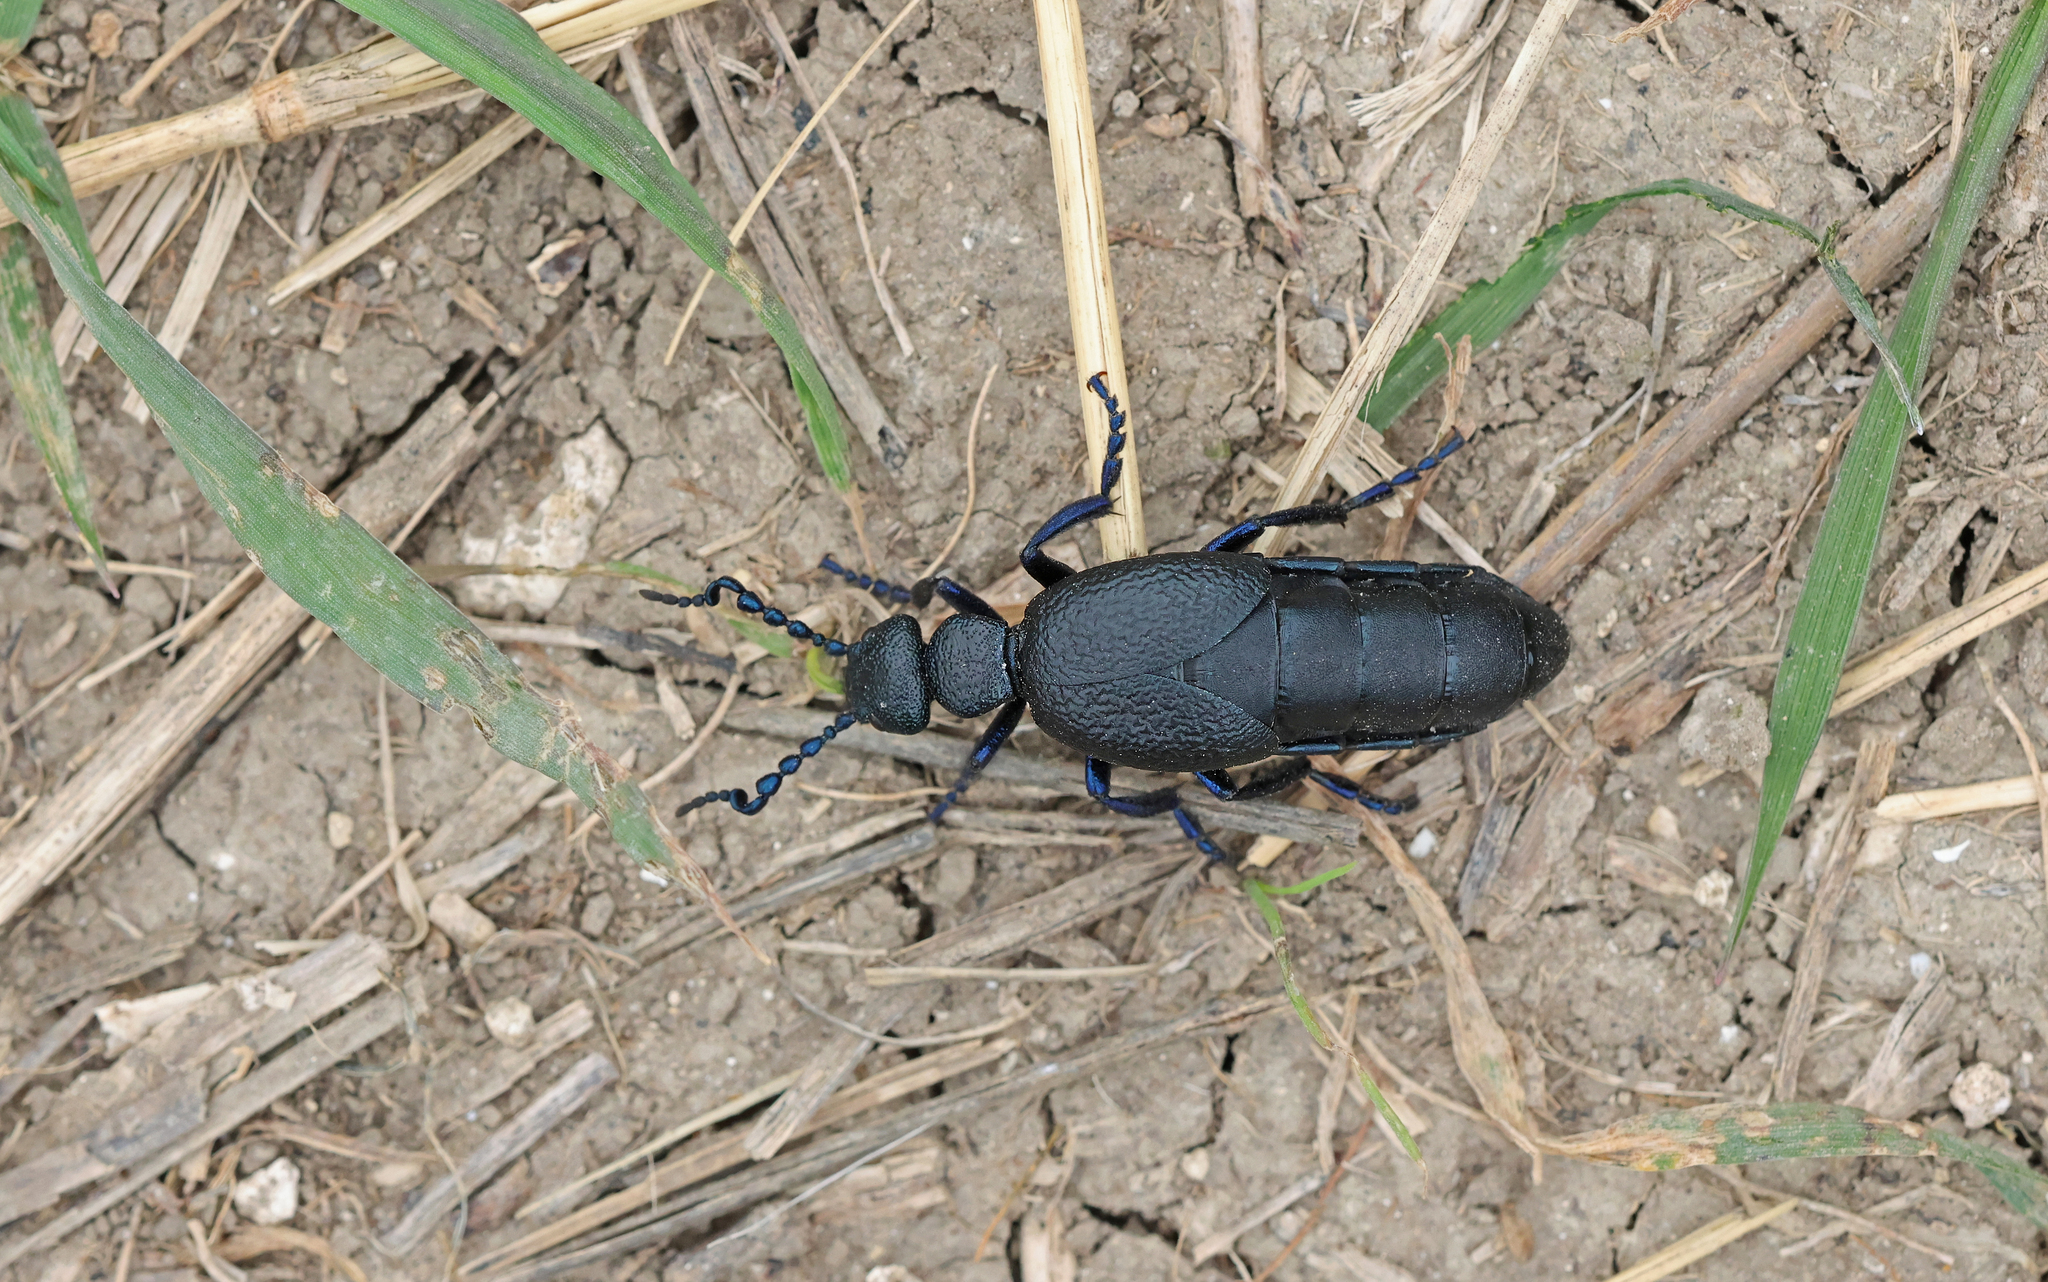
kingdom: Animalia
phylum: Arthropoda
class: Insecta
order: Coleoptera
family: Meloidae
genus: Meloe
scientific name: Meloe proscarabaeus
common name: Black oil-beetle
